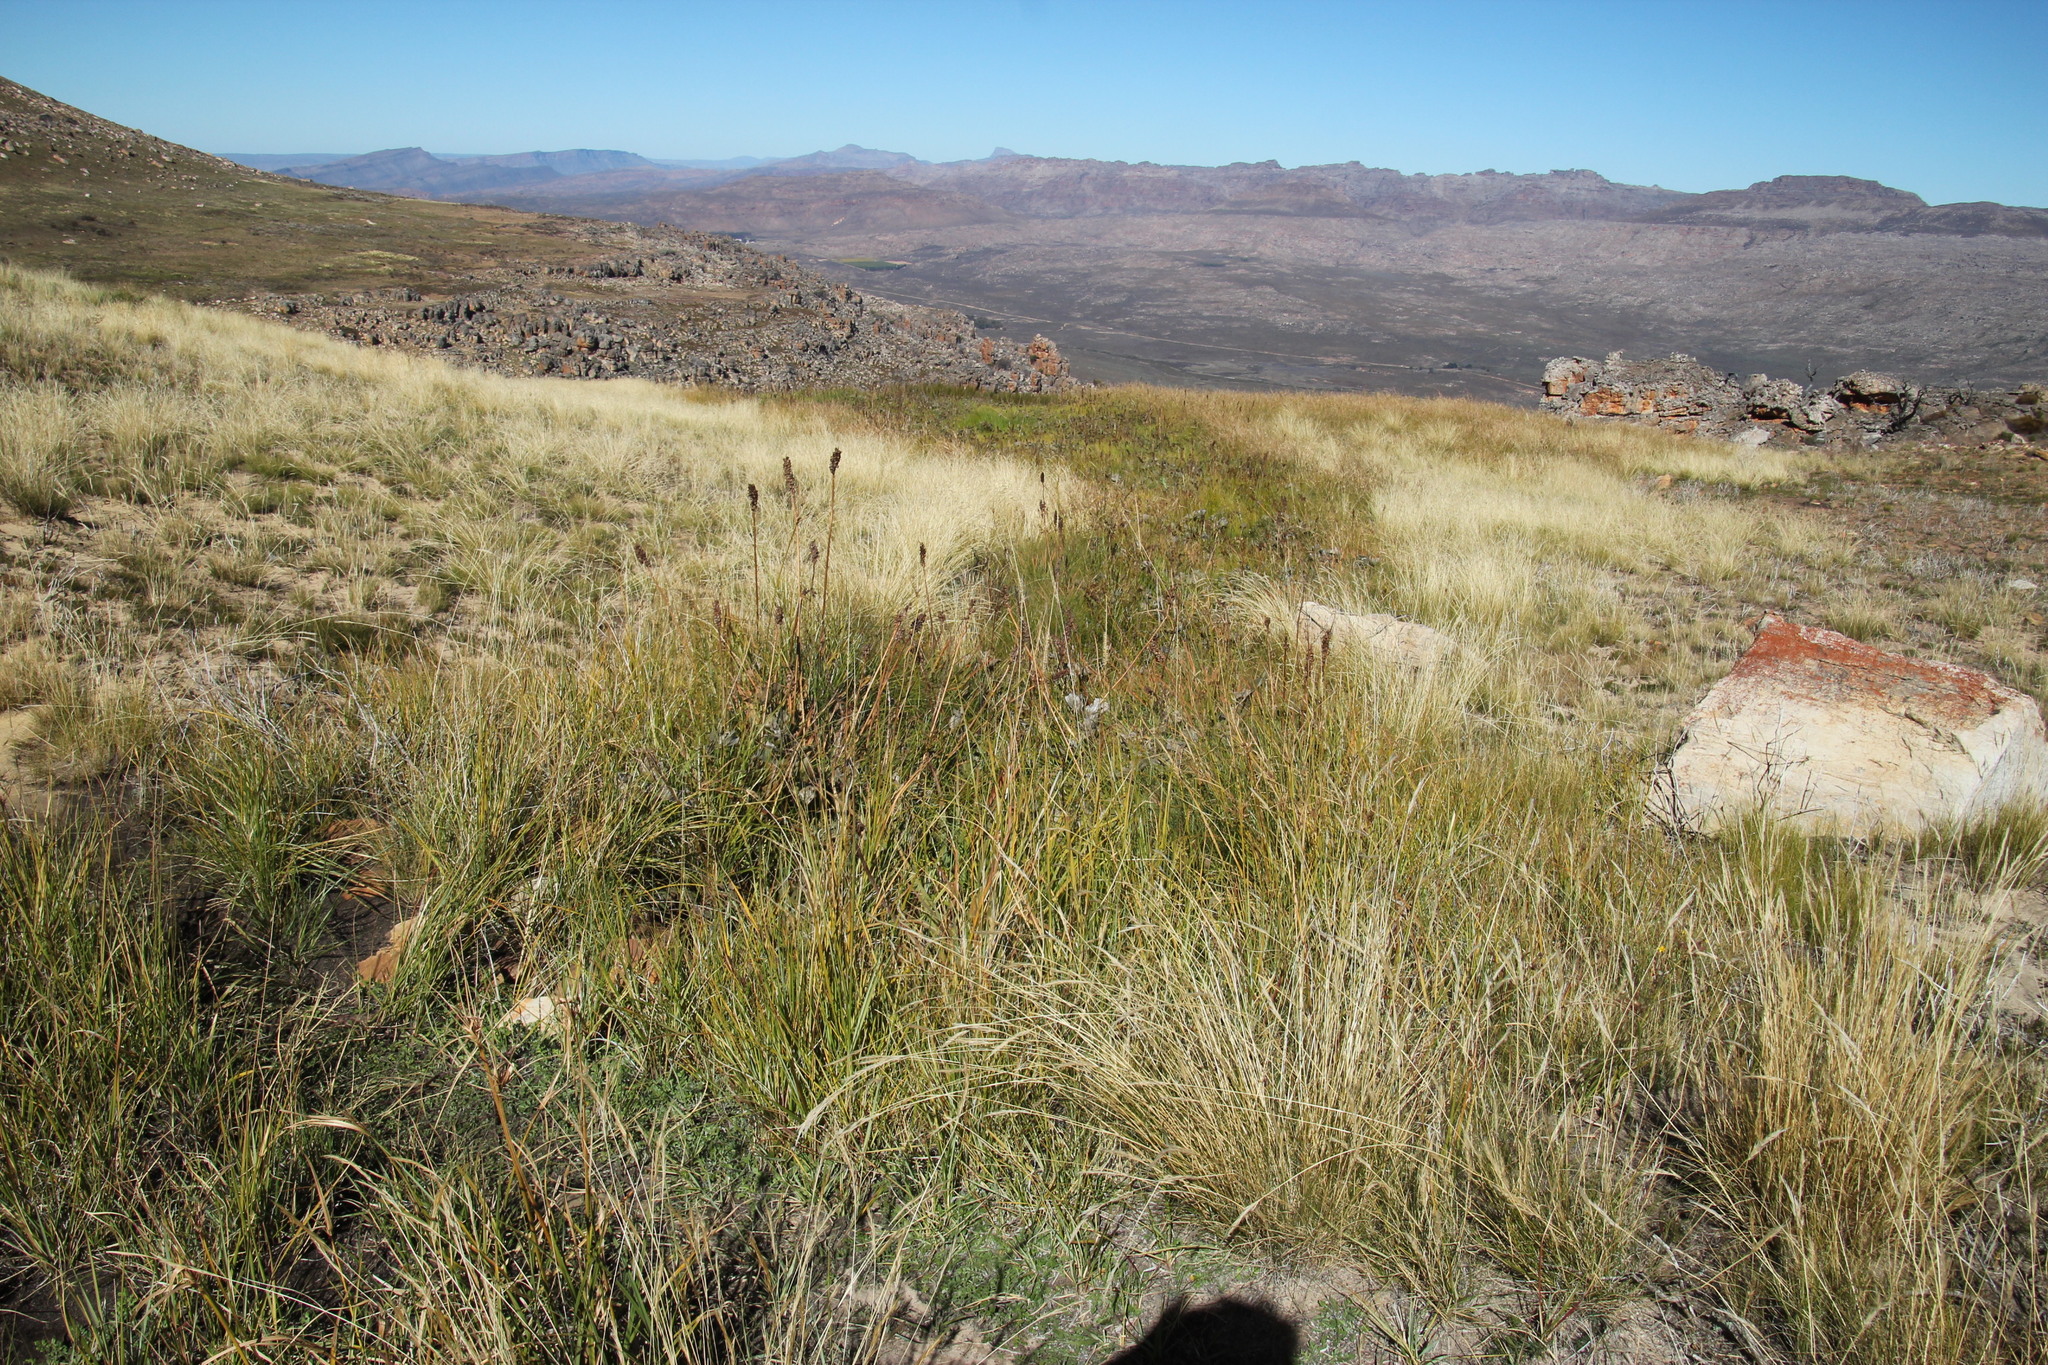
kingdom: Plantae
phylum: Tracheophyta
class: Liliopsida
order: Asparagales
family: Asphodelaceae
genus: Kniphofia
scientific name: Kniphofia uvaria
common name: Red-hot-poker
